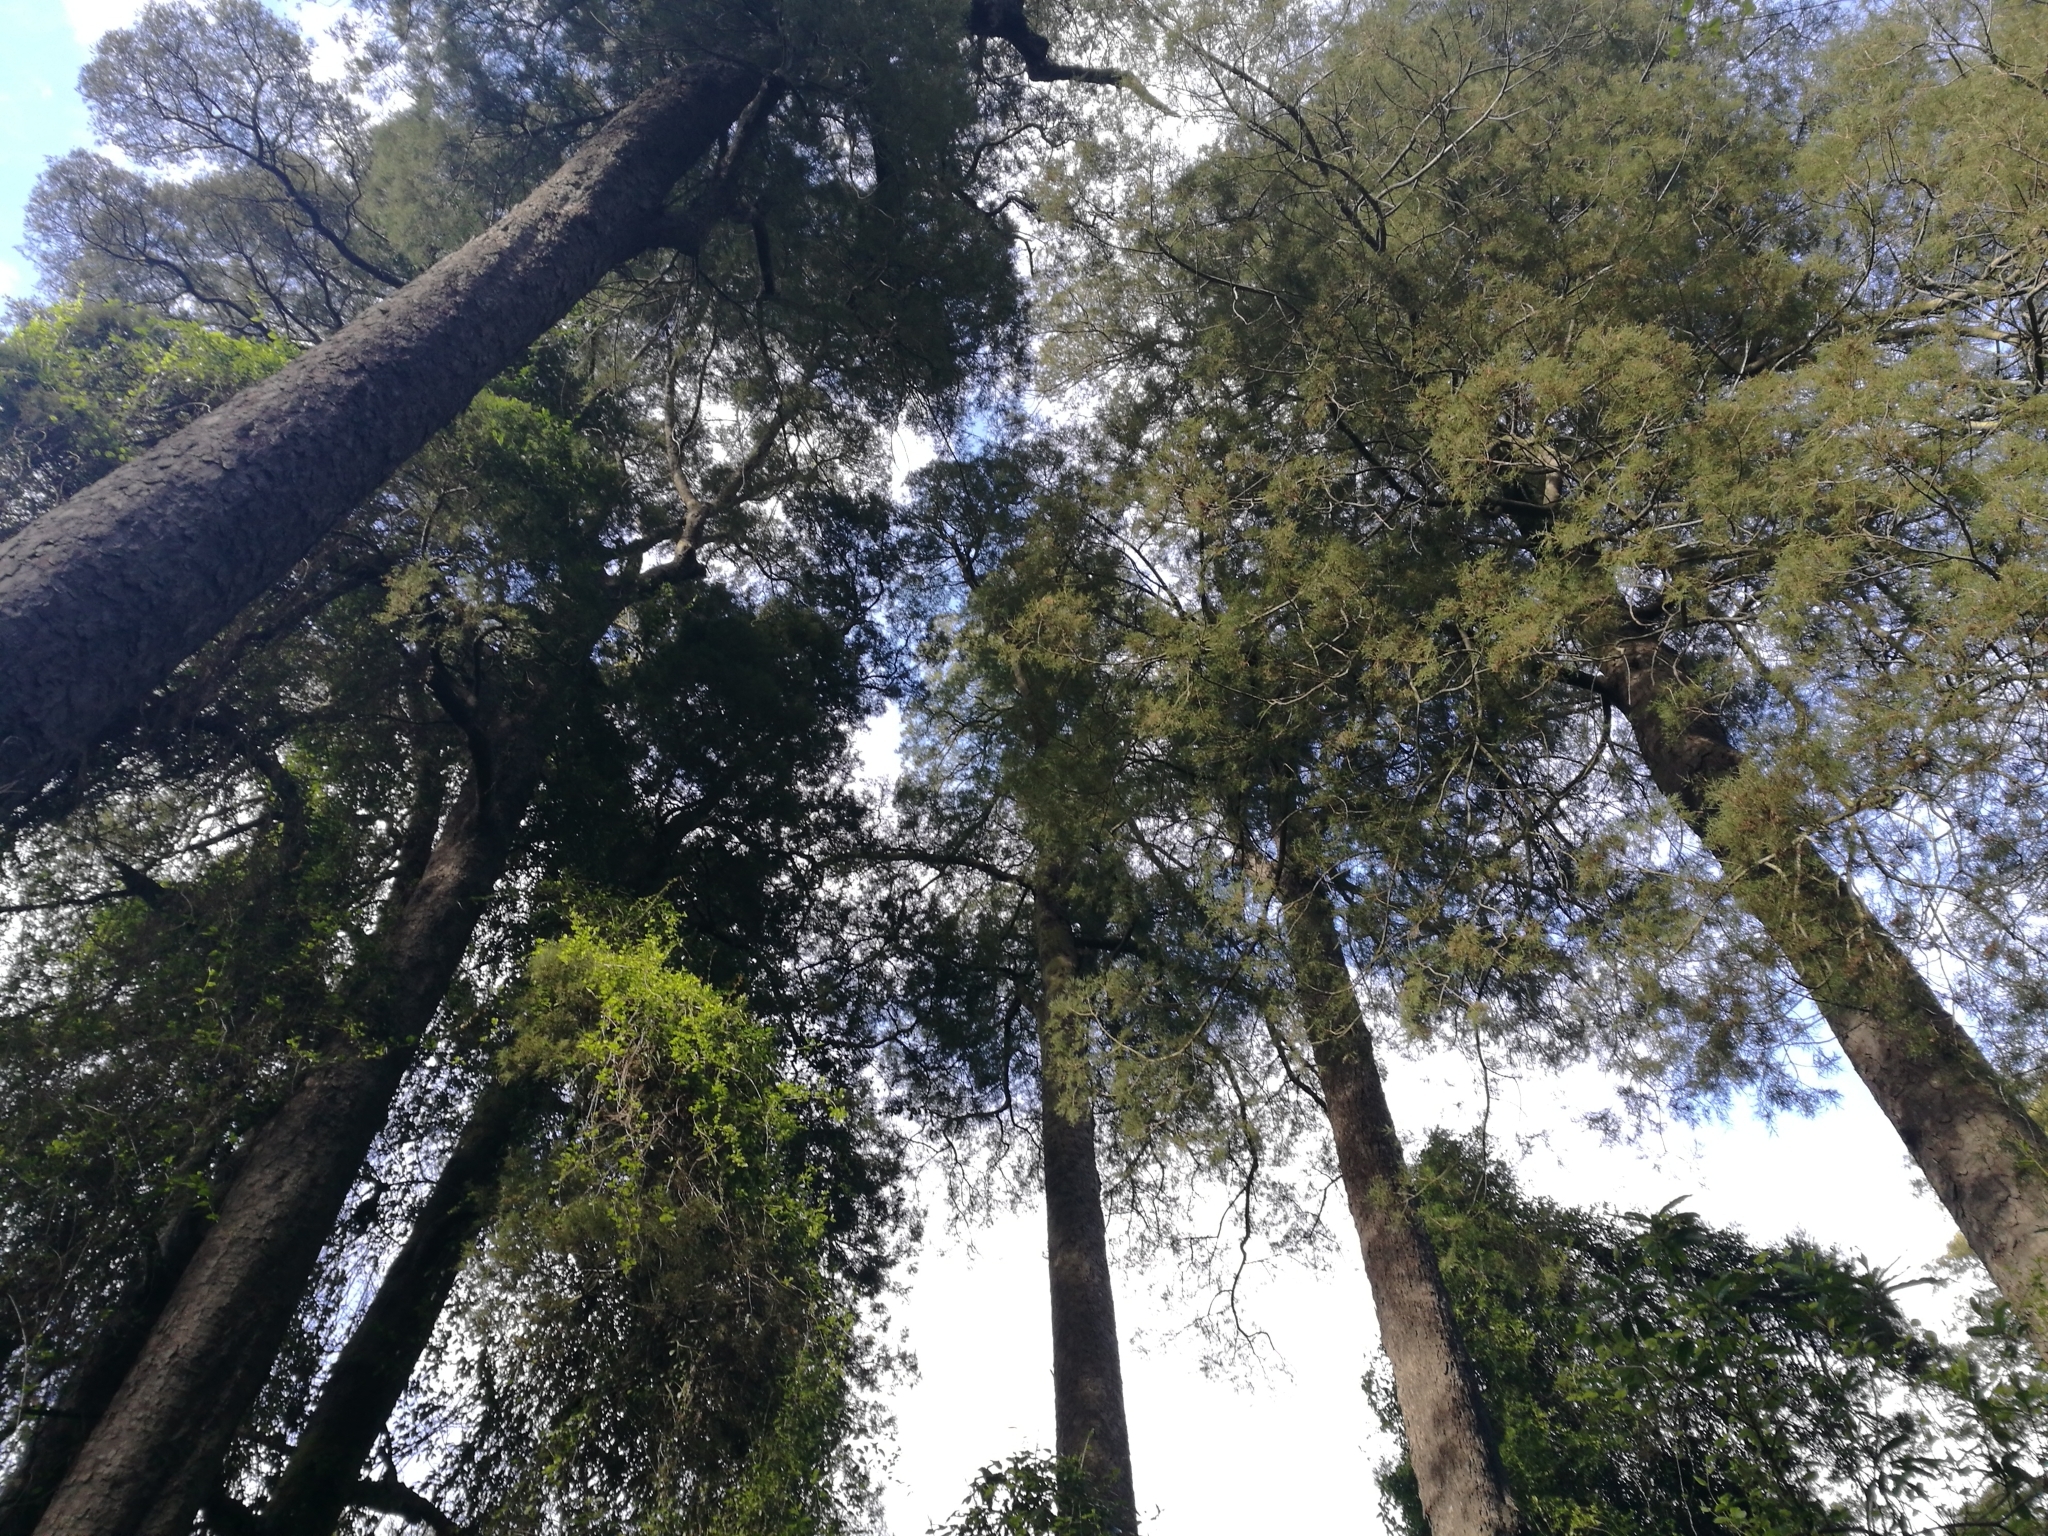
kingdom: Plantae
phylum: Tracheophyta
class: Pinopsida
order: Pinales
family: Podocarpaceae
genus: Dacrycarpus
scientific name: Dacrycarpus dacrydioides
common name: White pine
